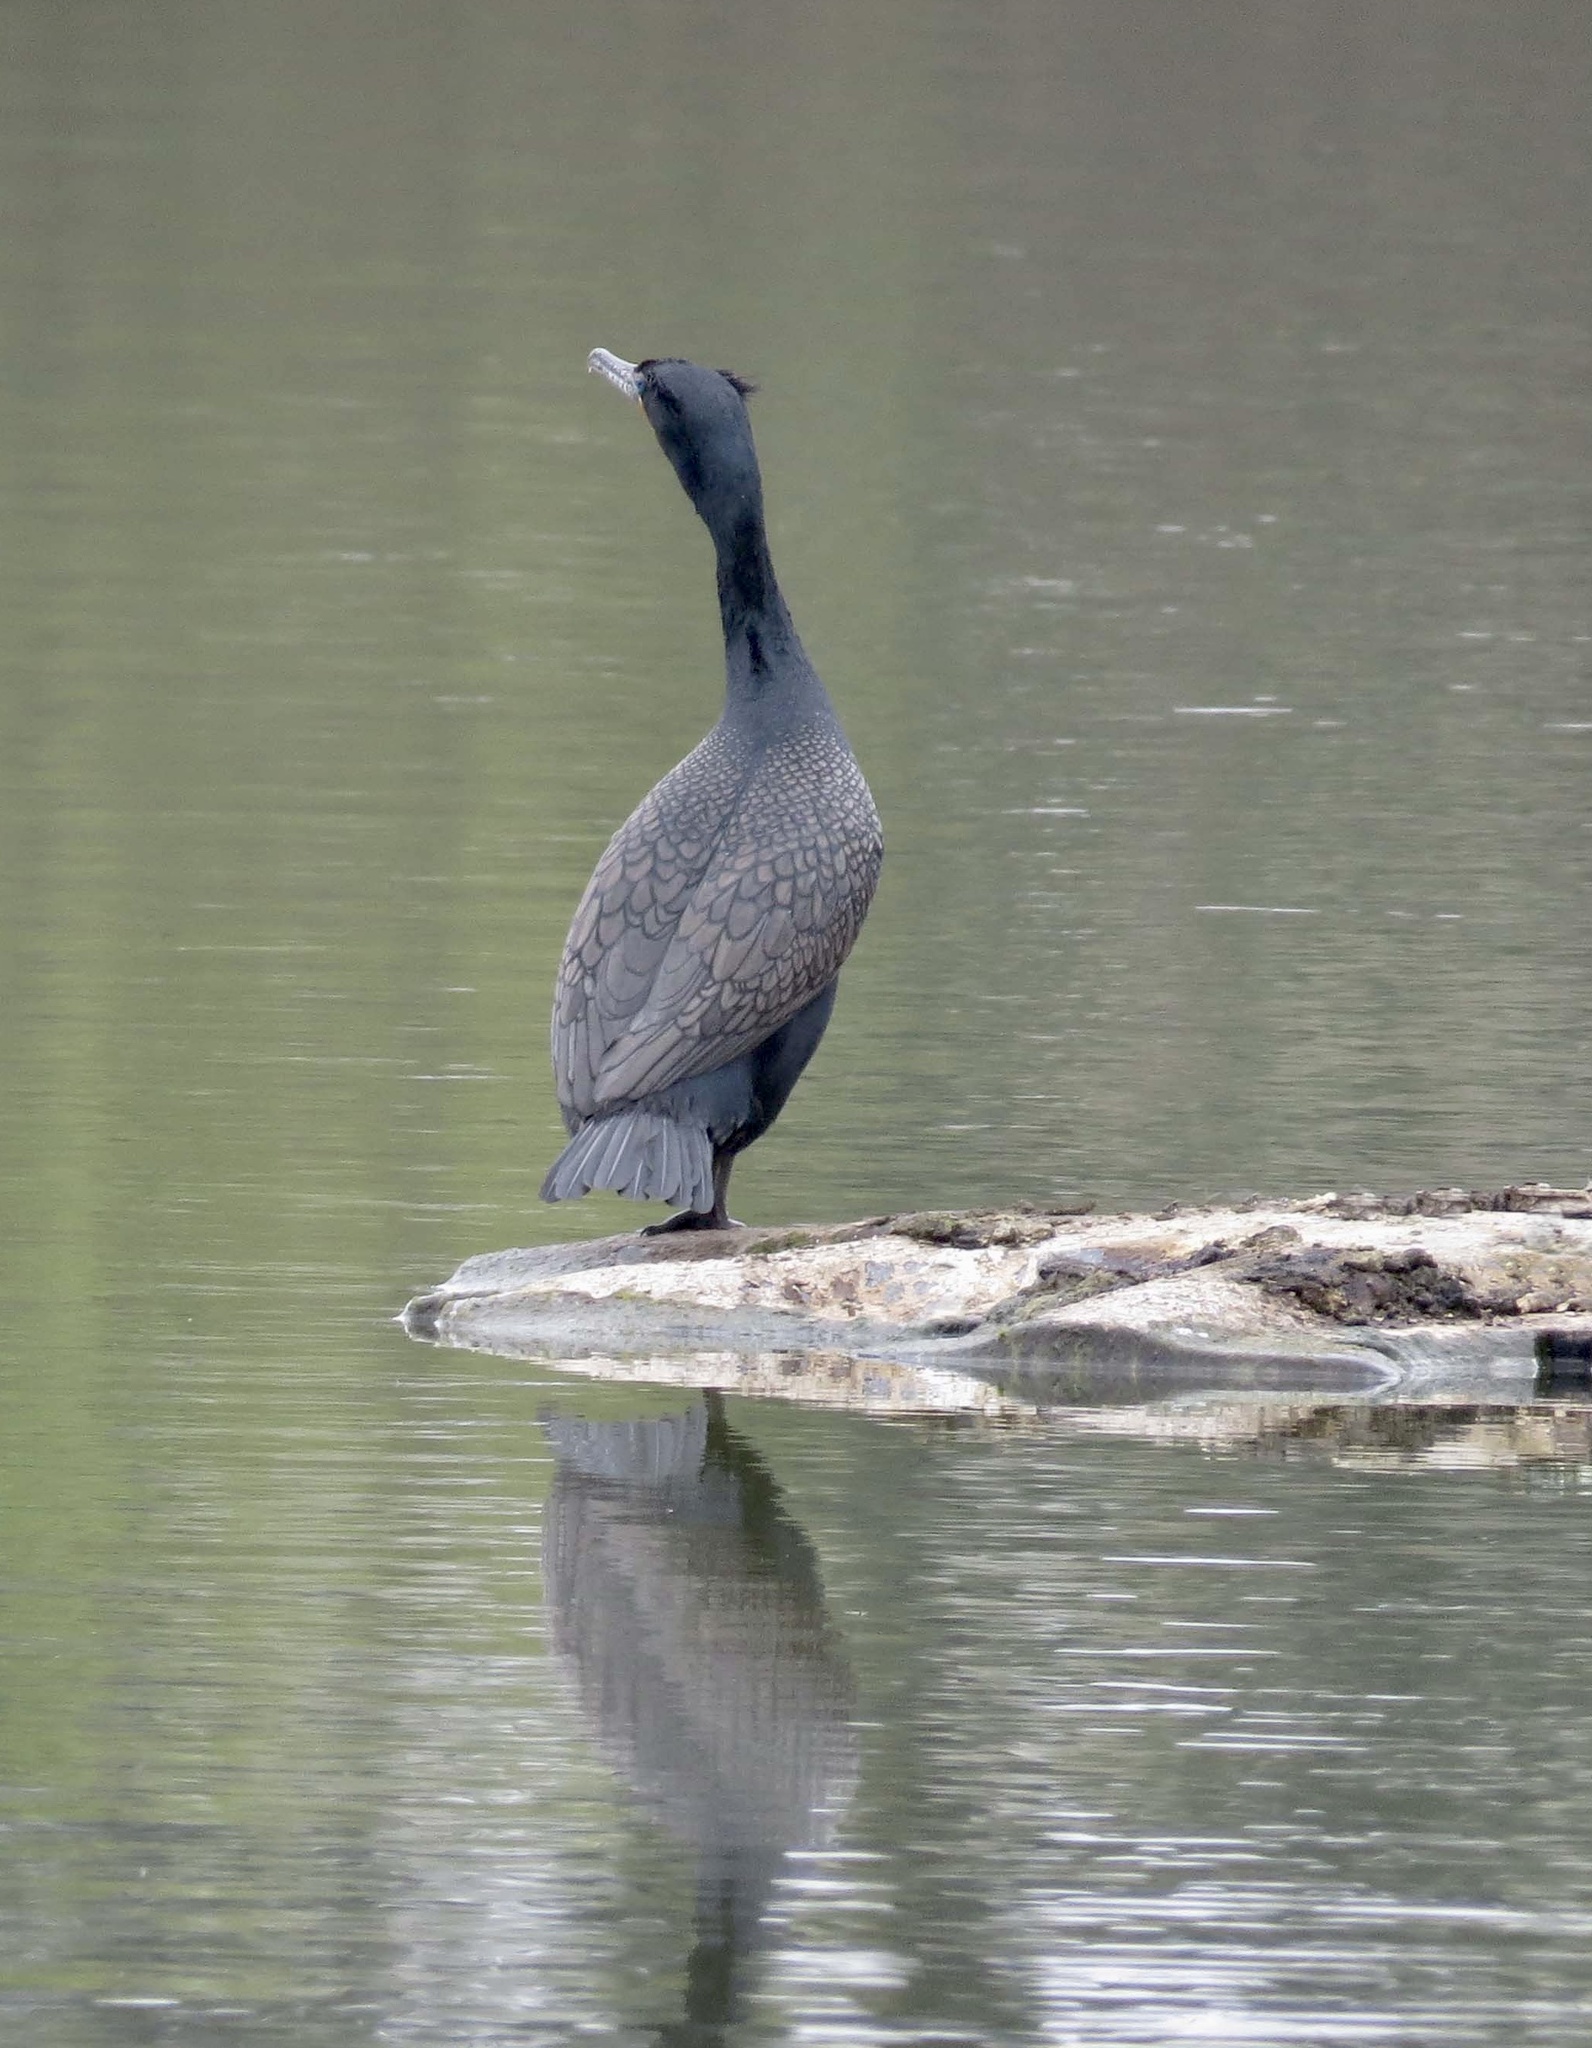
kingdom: Animalia
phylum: Chordata
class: Aves
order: Suliformes
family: Phalacrocoracidae
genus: Phalacrocorax
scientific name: Phalacrocorax auritus
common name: Double-crested cormorant
